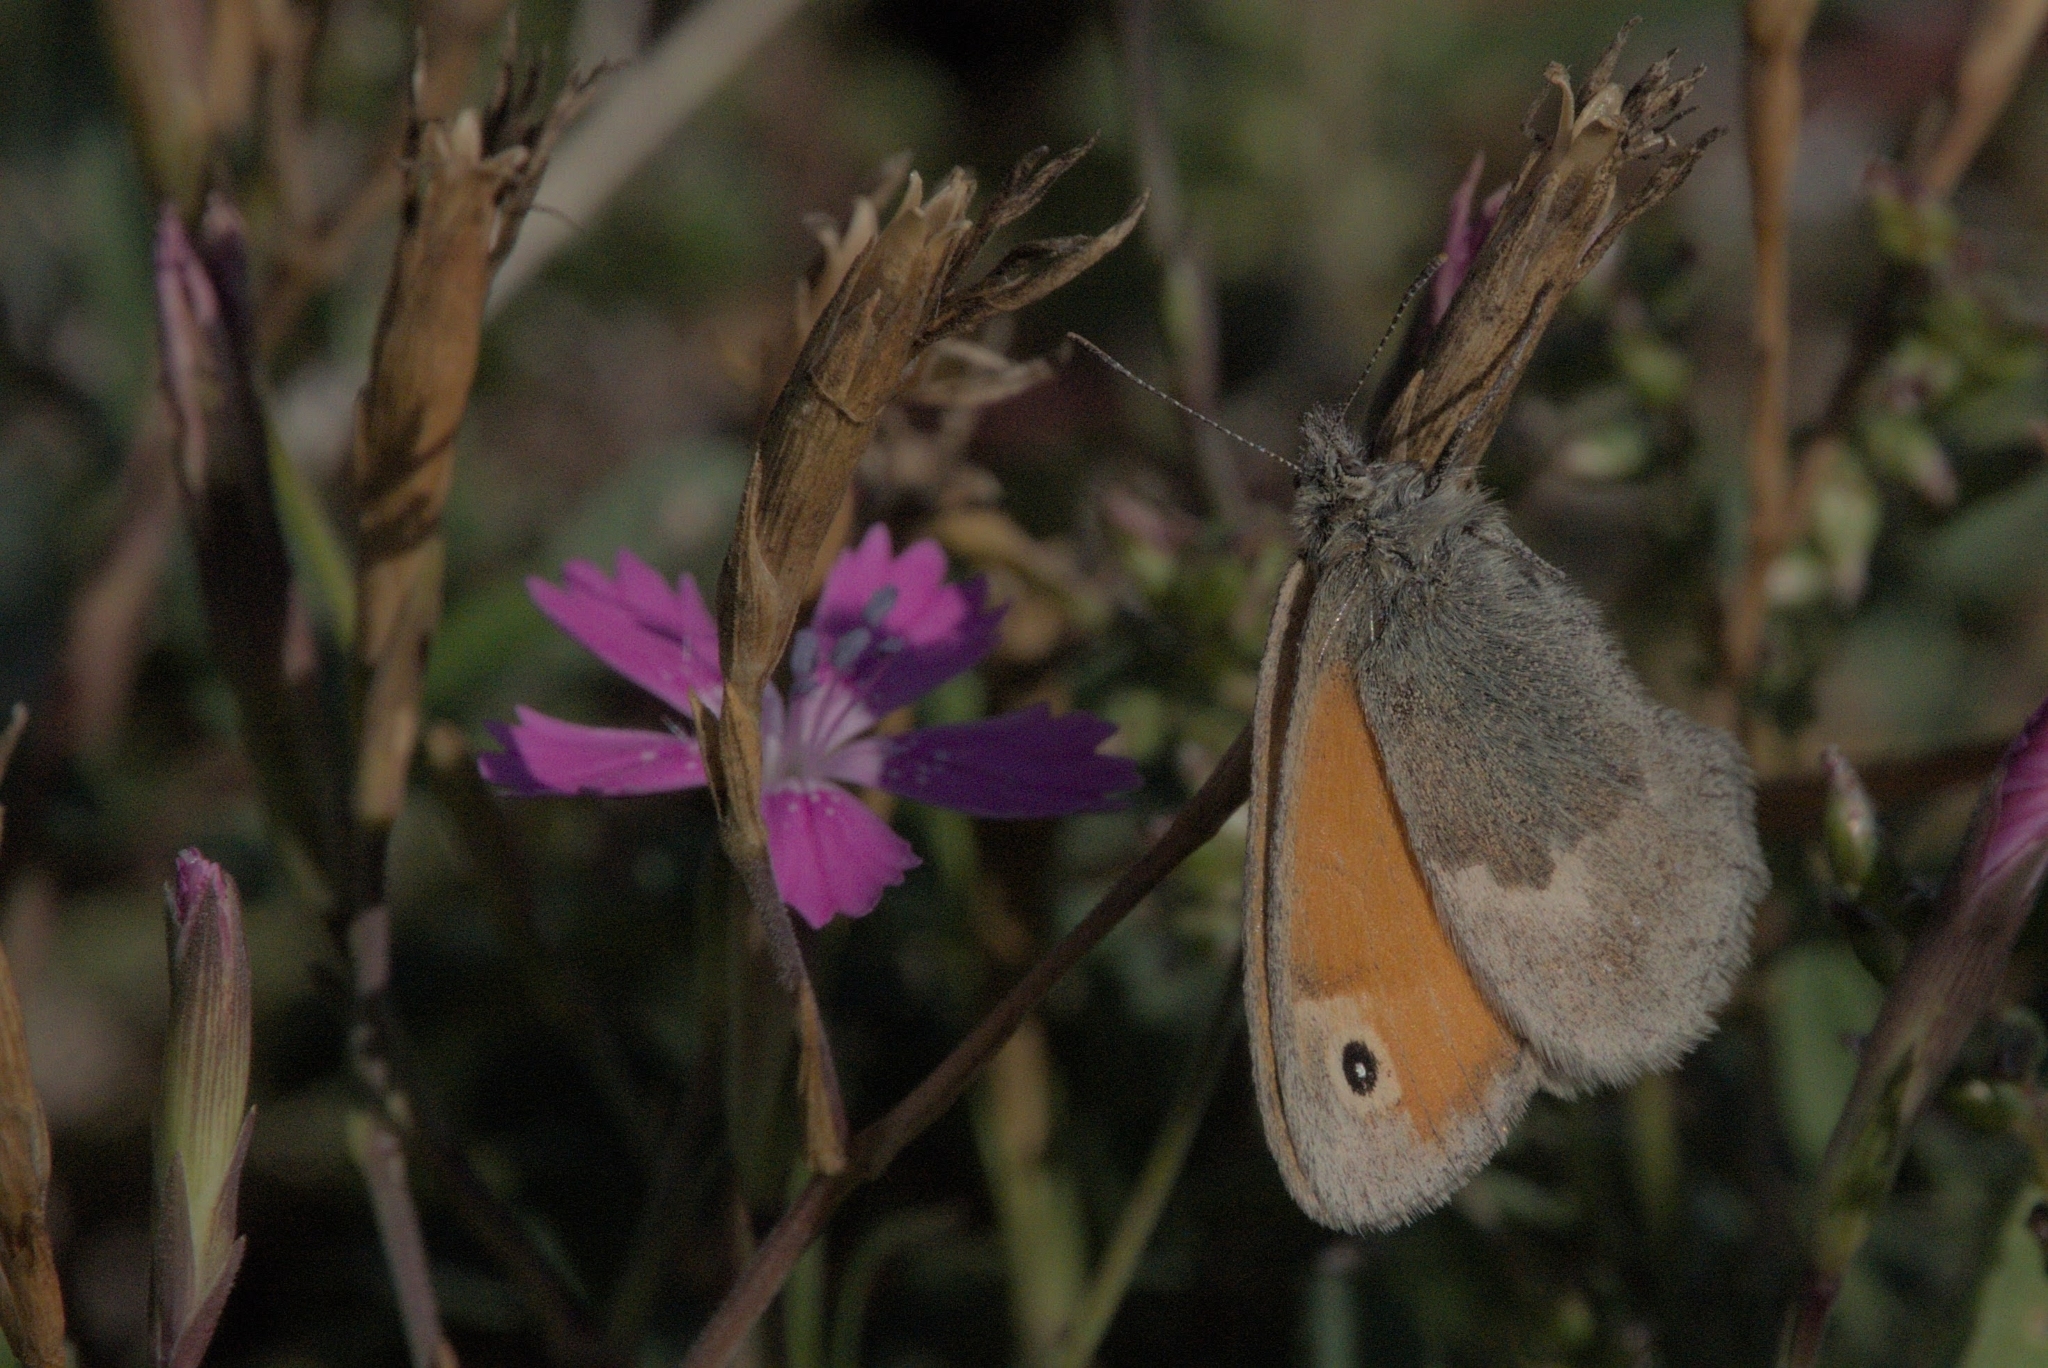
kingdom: Animalia
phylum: Arthropoda
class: Insecta
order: Lepidoptera
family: Nymphalidae
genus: Coenonympha
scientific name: Coenonympha pamphilus
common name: Small heath
